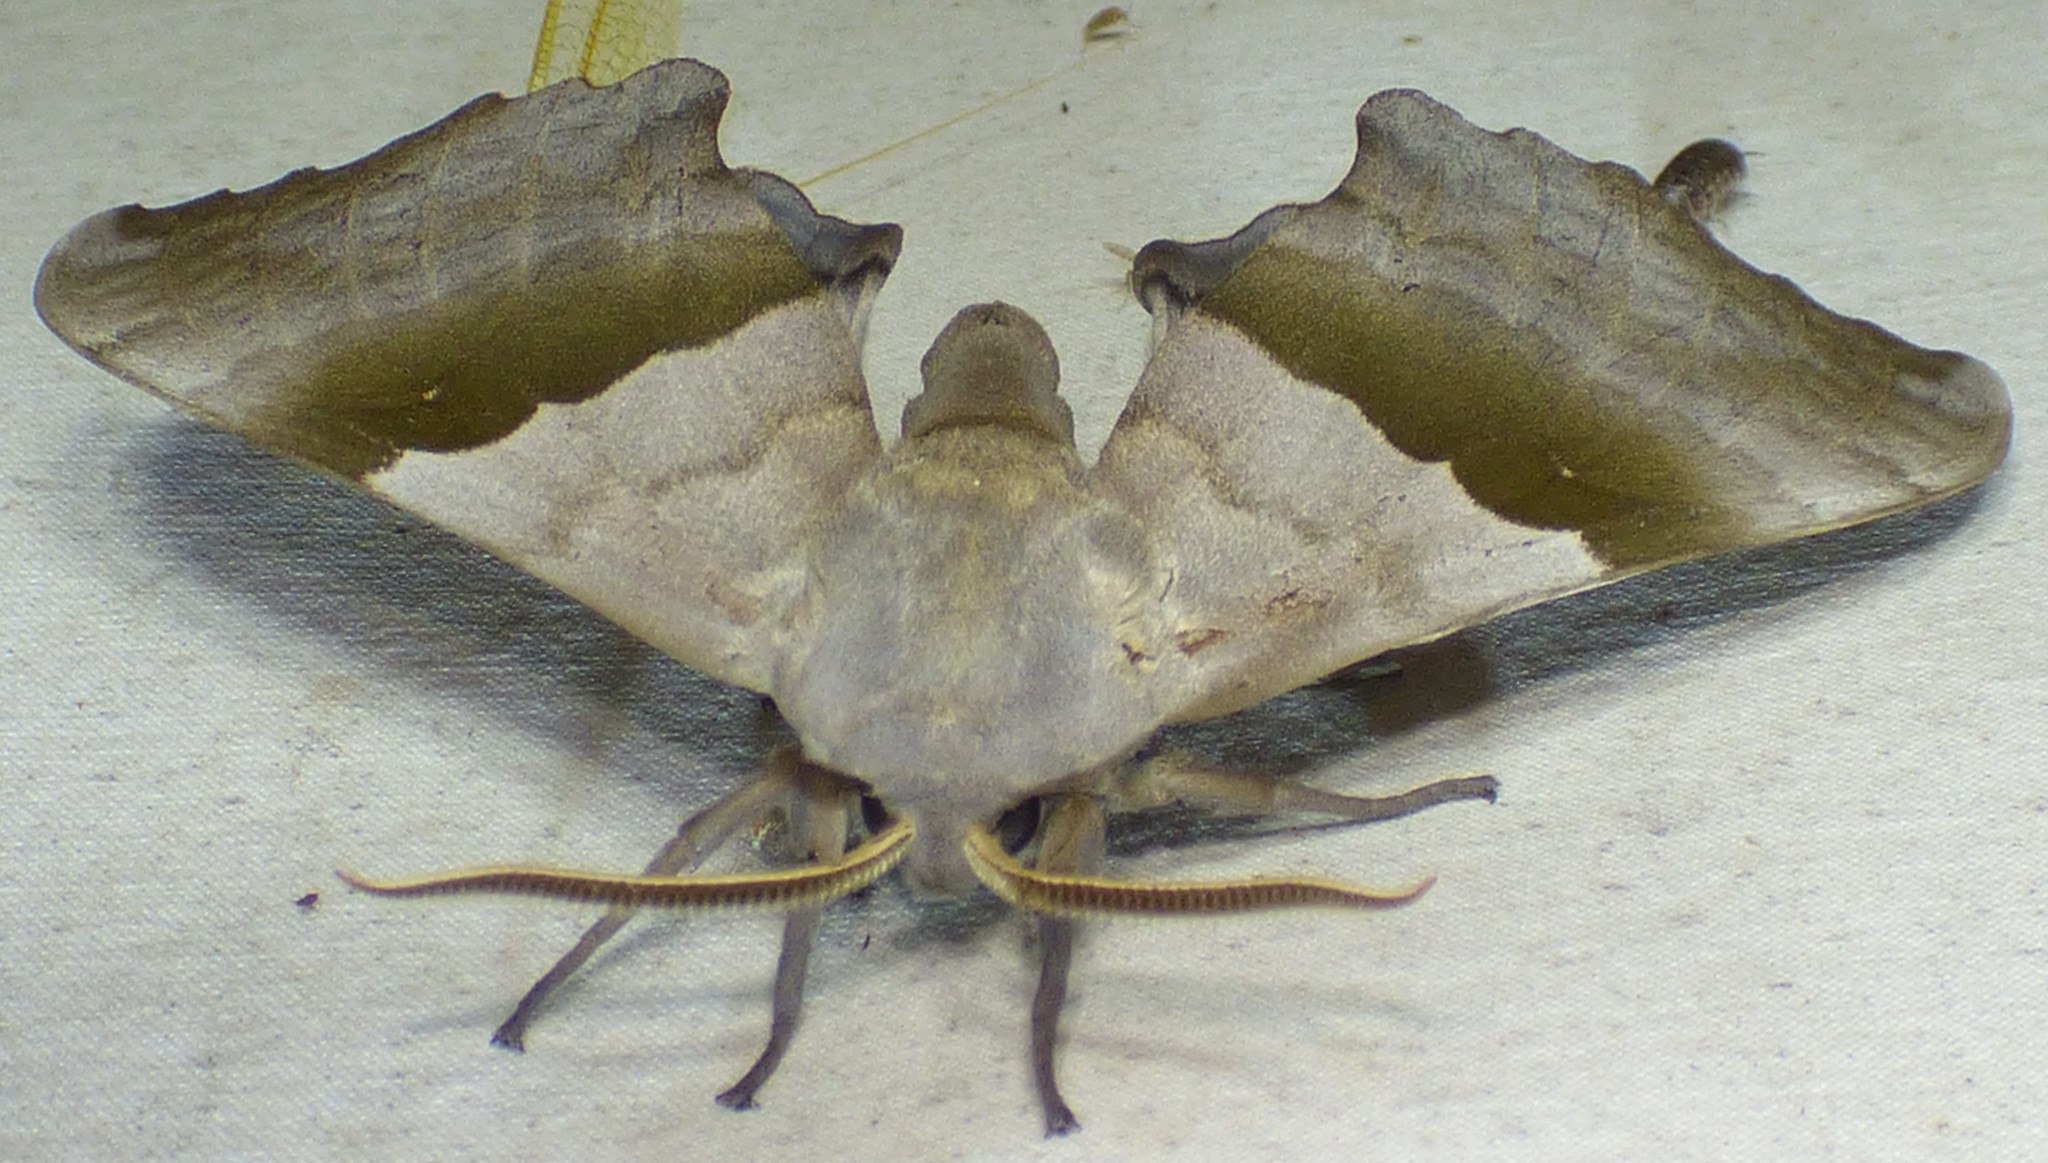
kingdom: Animalia
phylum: Arthropoda
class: Insecta
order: Lepidoptera
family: Sphingidae
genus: Pachysphinx
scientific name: Pachysphinx modesta
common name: Big poplar sphinx
